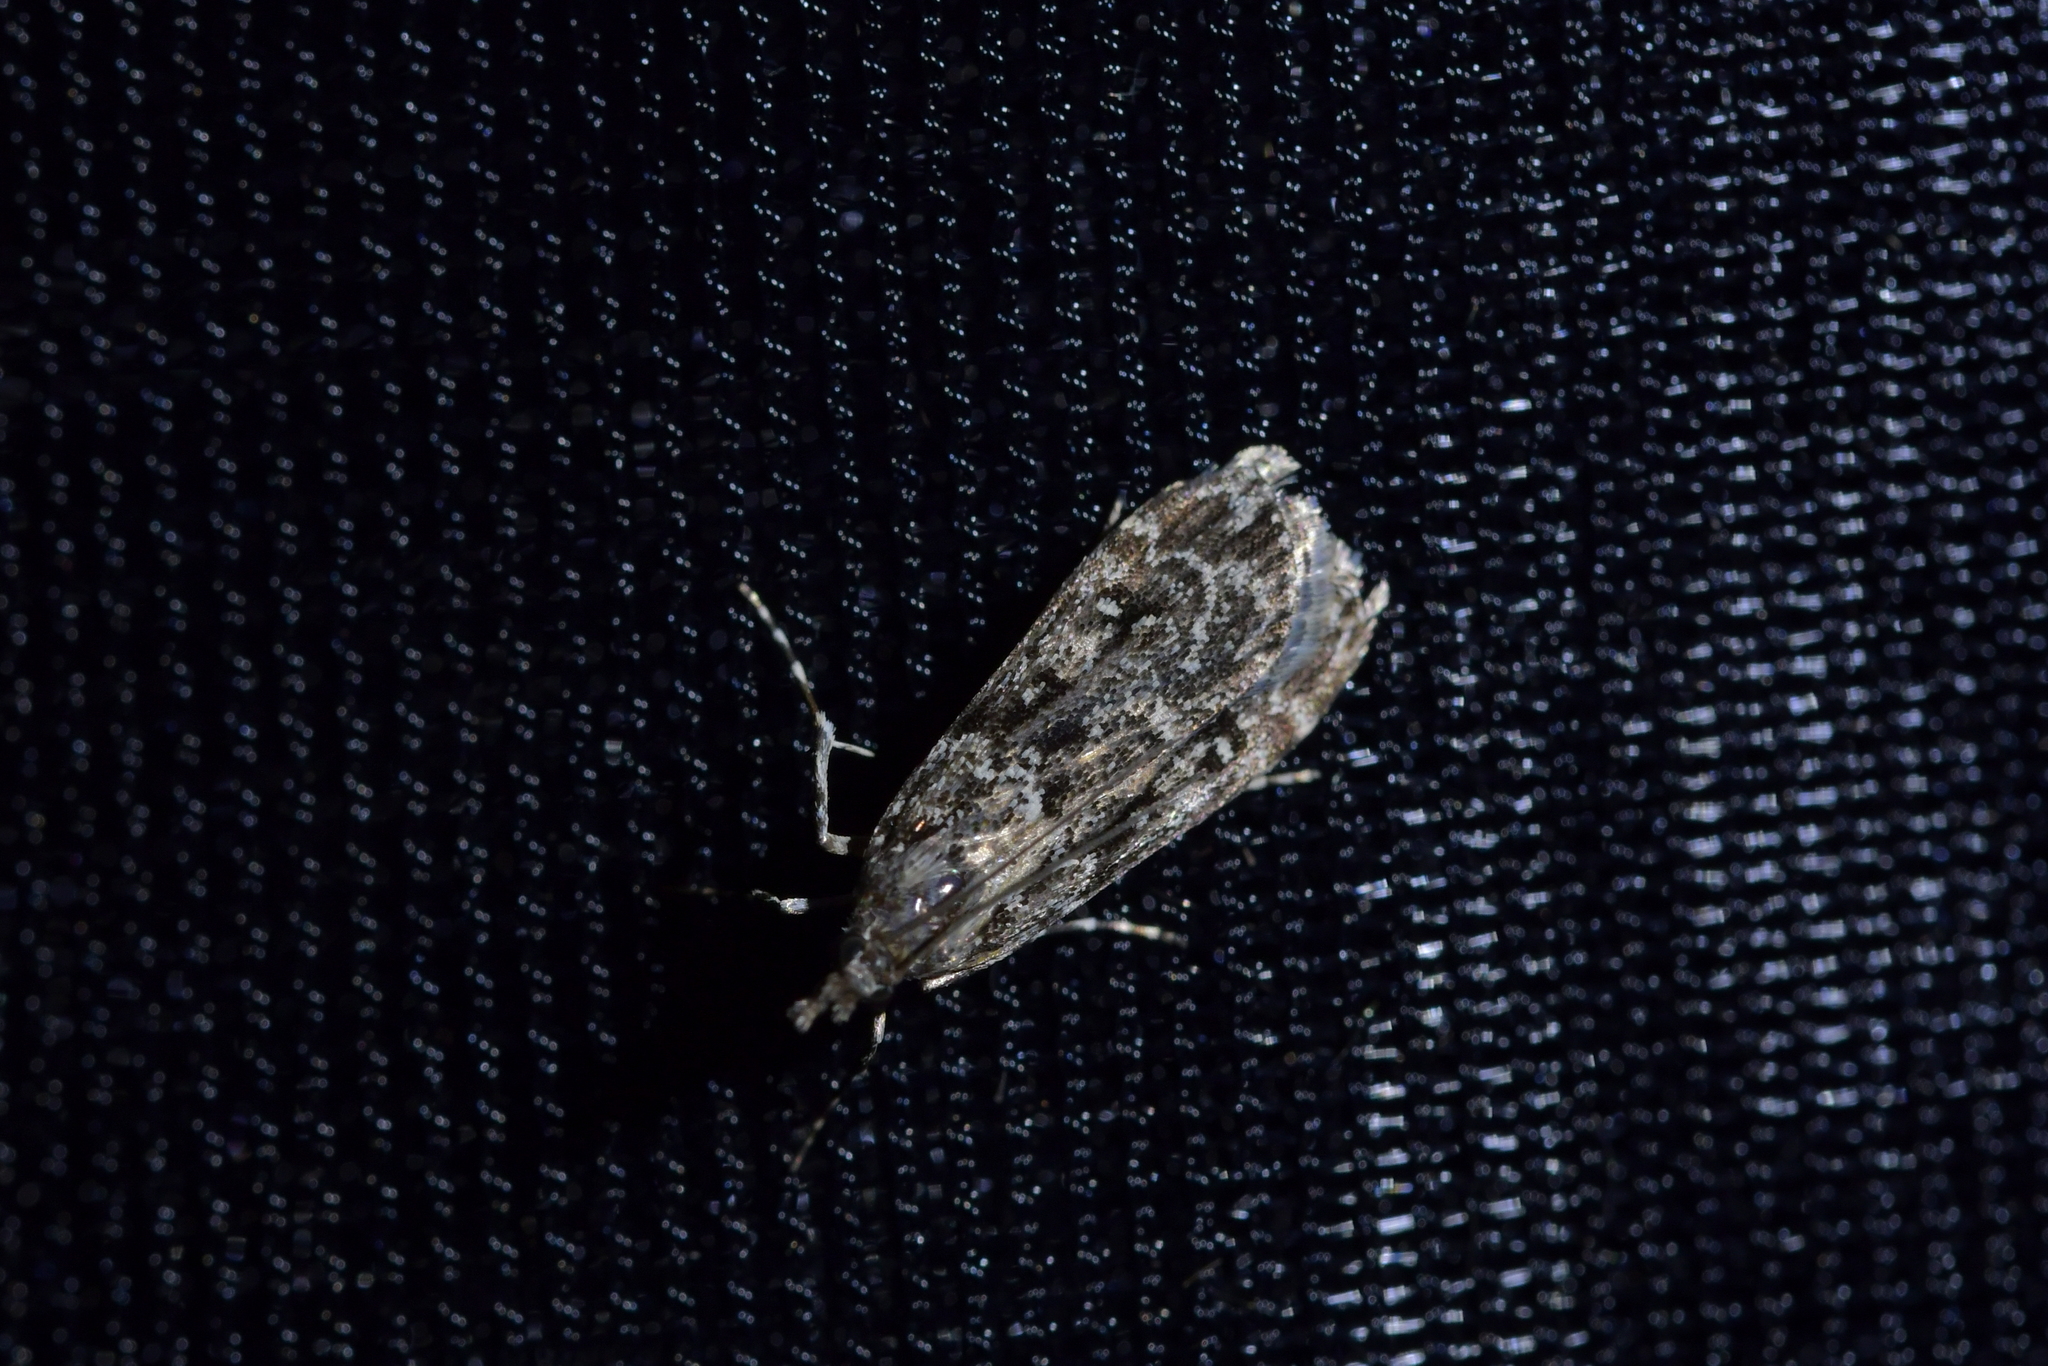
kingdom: Animalia
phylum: Arthropoda
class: Insecta
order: Lepidoptera
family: Crambidae
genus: Eudonia
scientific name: Eudonia philerga
